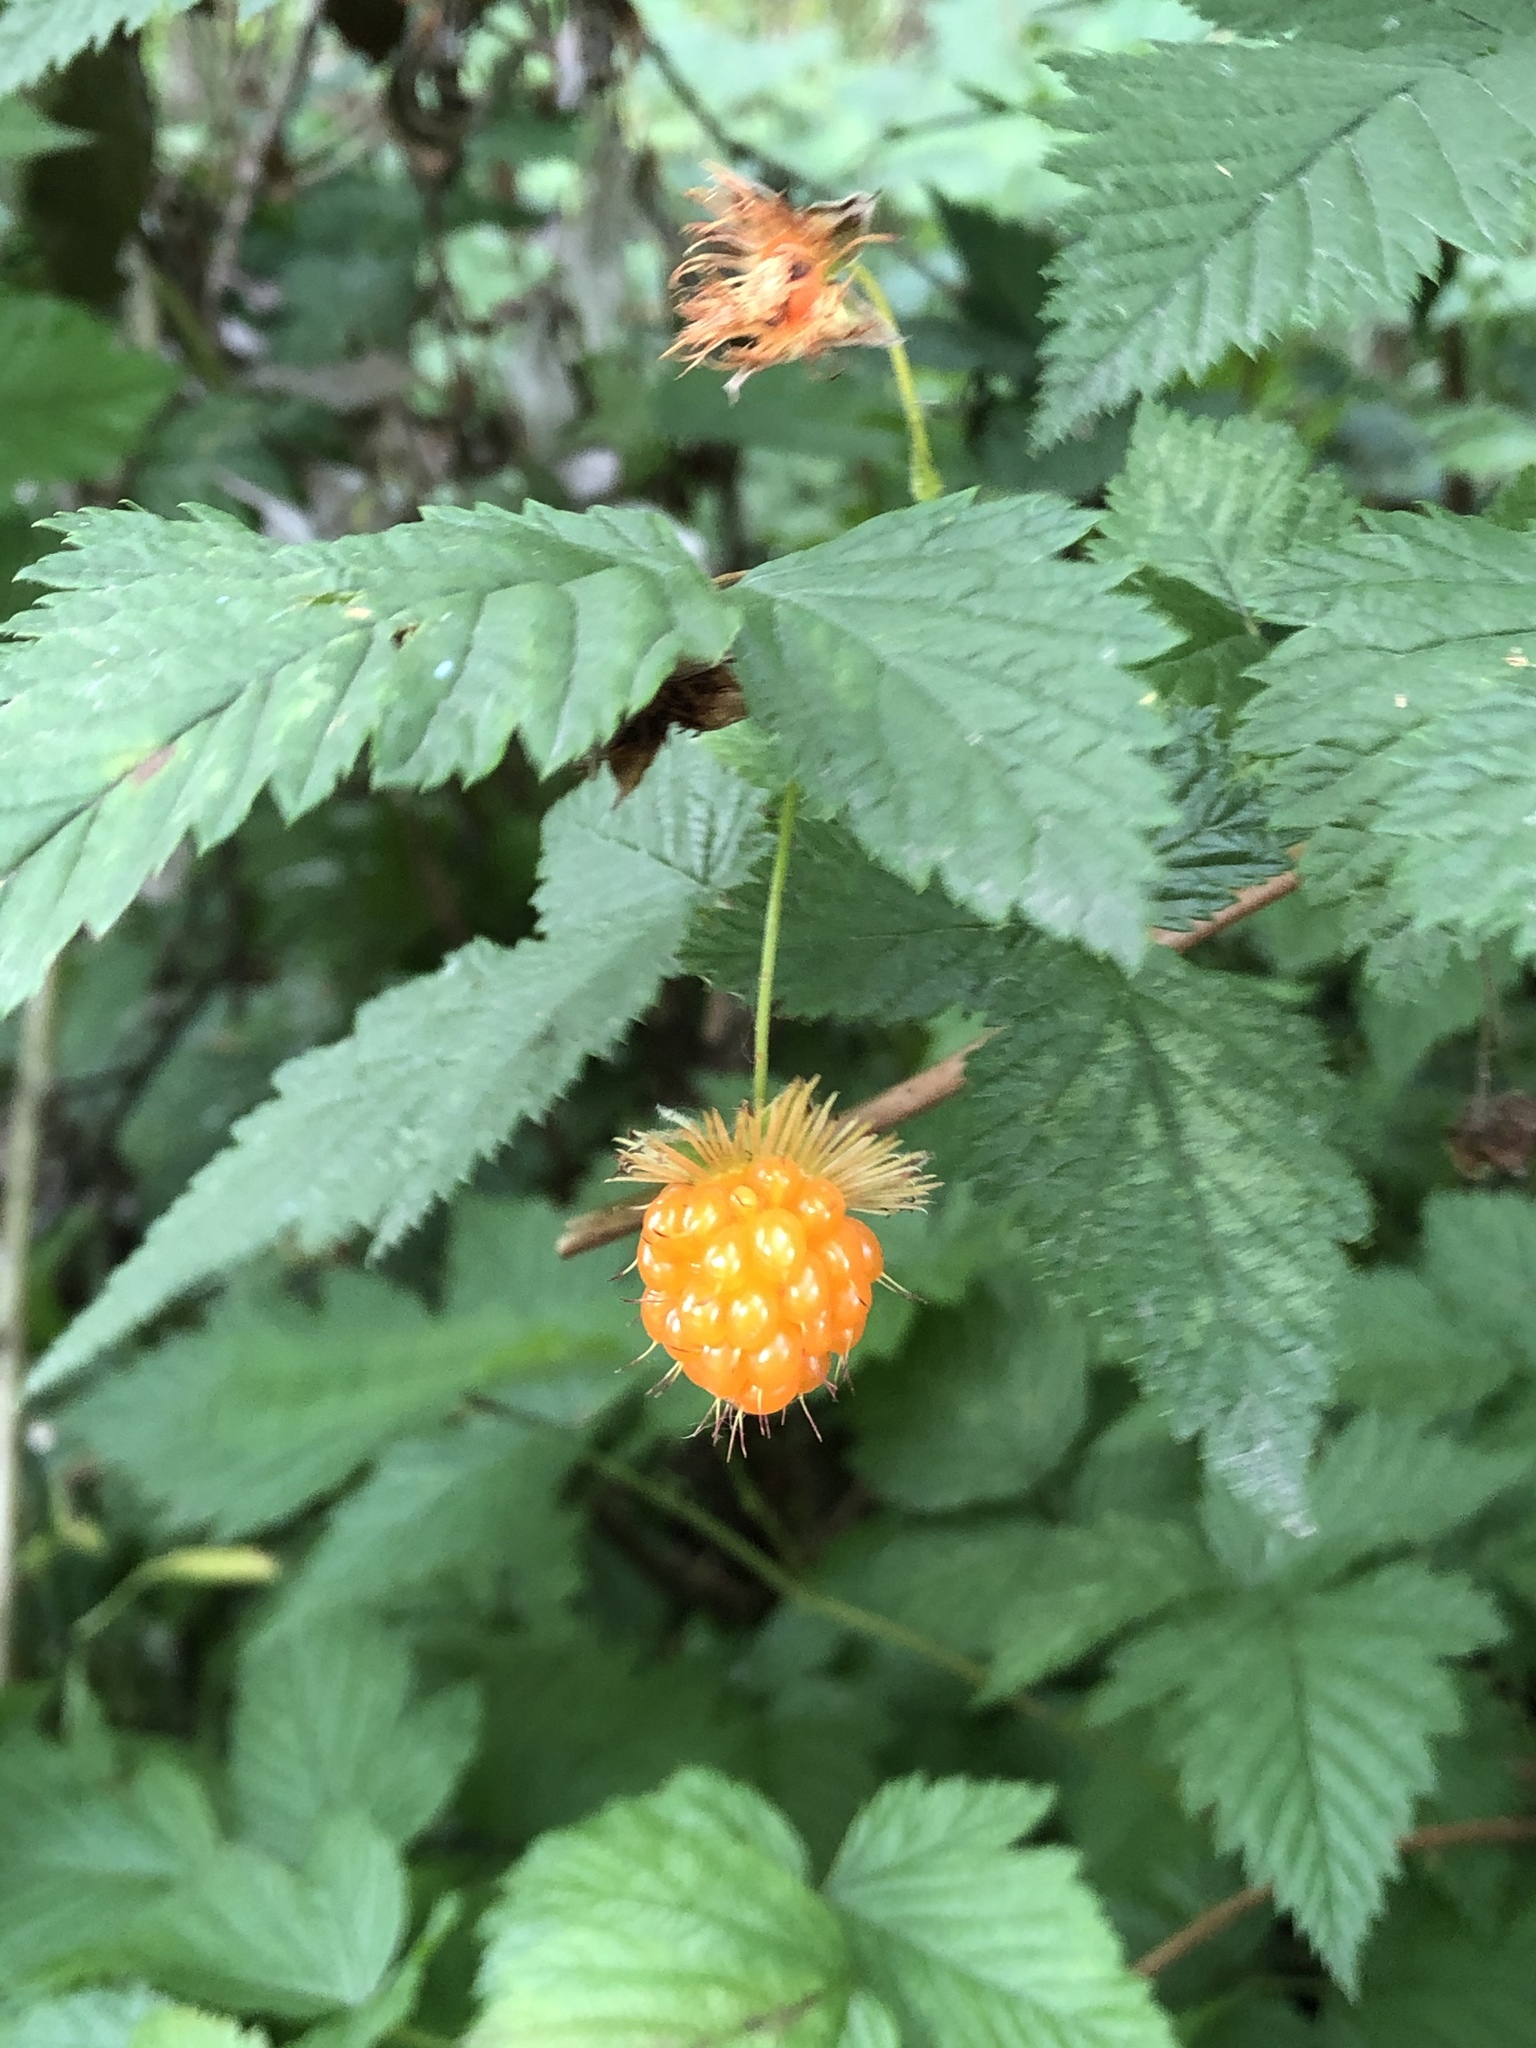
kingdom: Plantae
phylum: Tracheophyta
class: Magnoliopsida
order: Rosales
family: Rosaceae
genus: Rubus
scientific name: Rubus spectabilis
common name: Salmonberry
